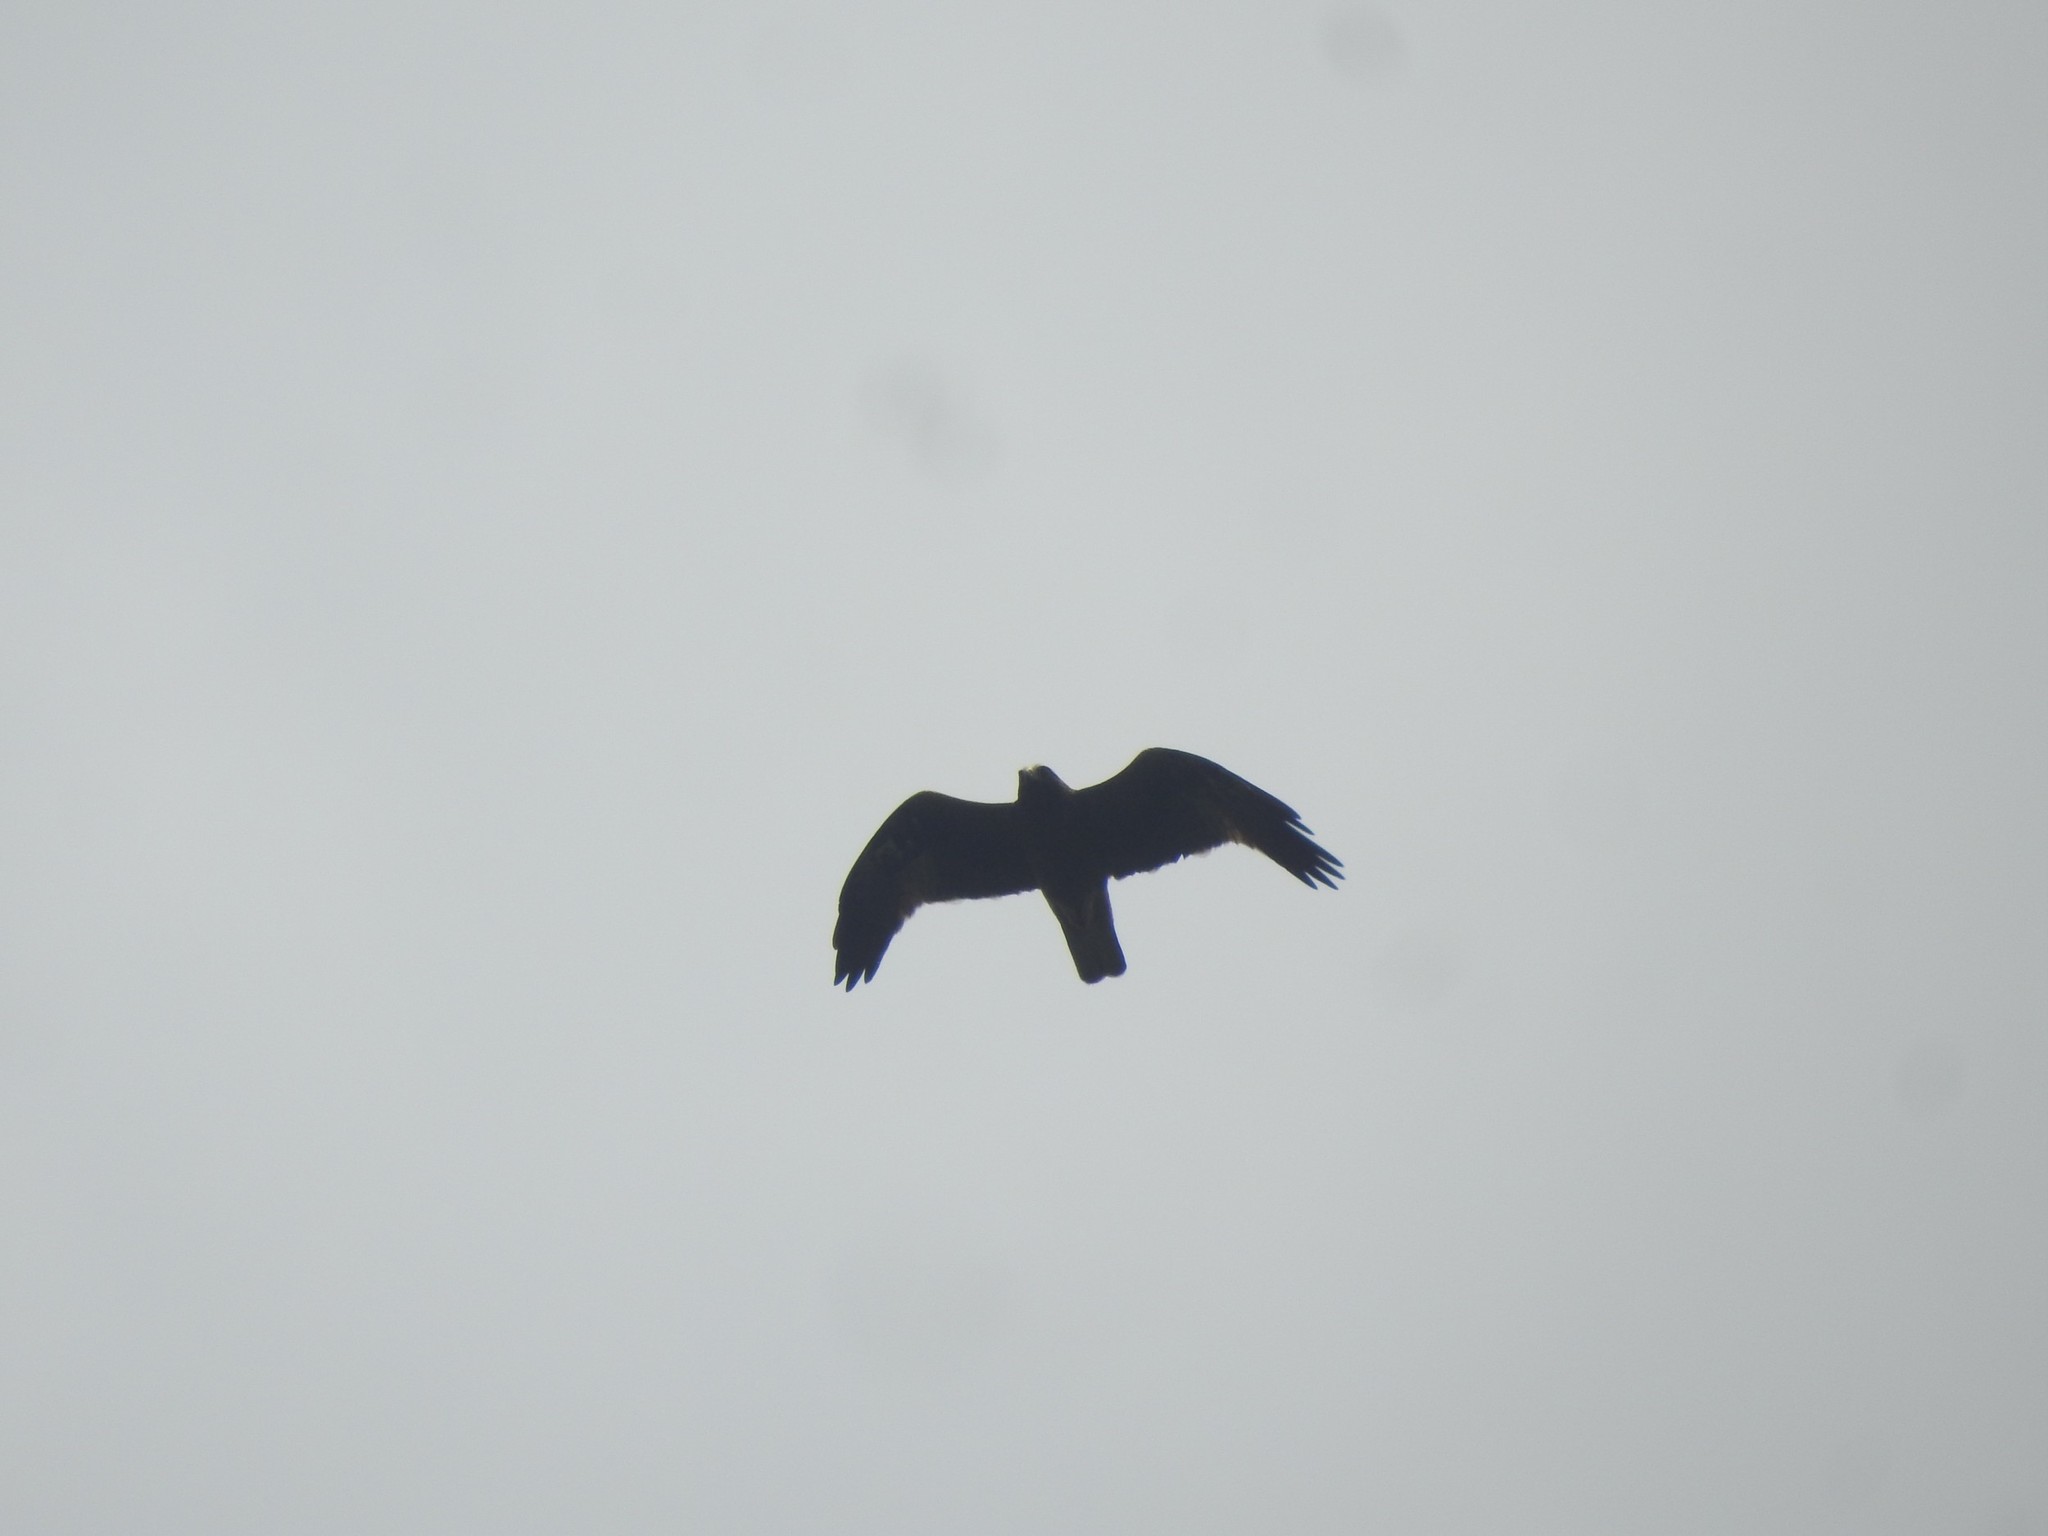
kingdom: Animalia
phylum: Chordata
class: Aves
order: Accipitriformes
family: Accipitridae
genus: Hieraaetus
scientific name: Hieraaetus pennatus
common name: Booted eagle
